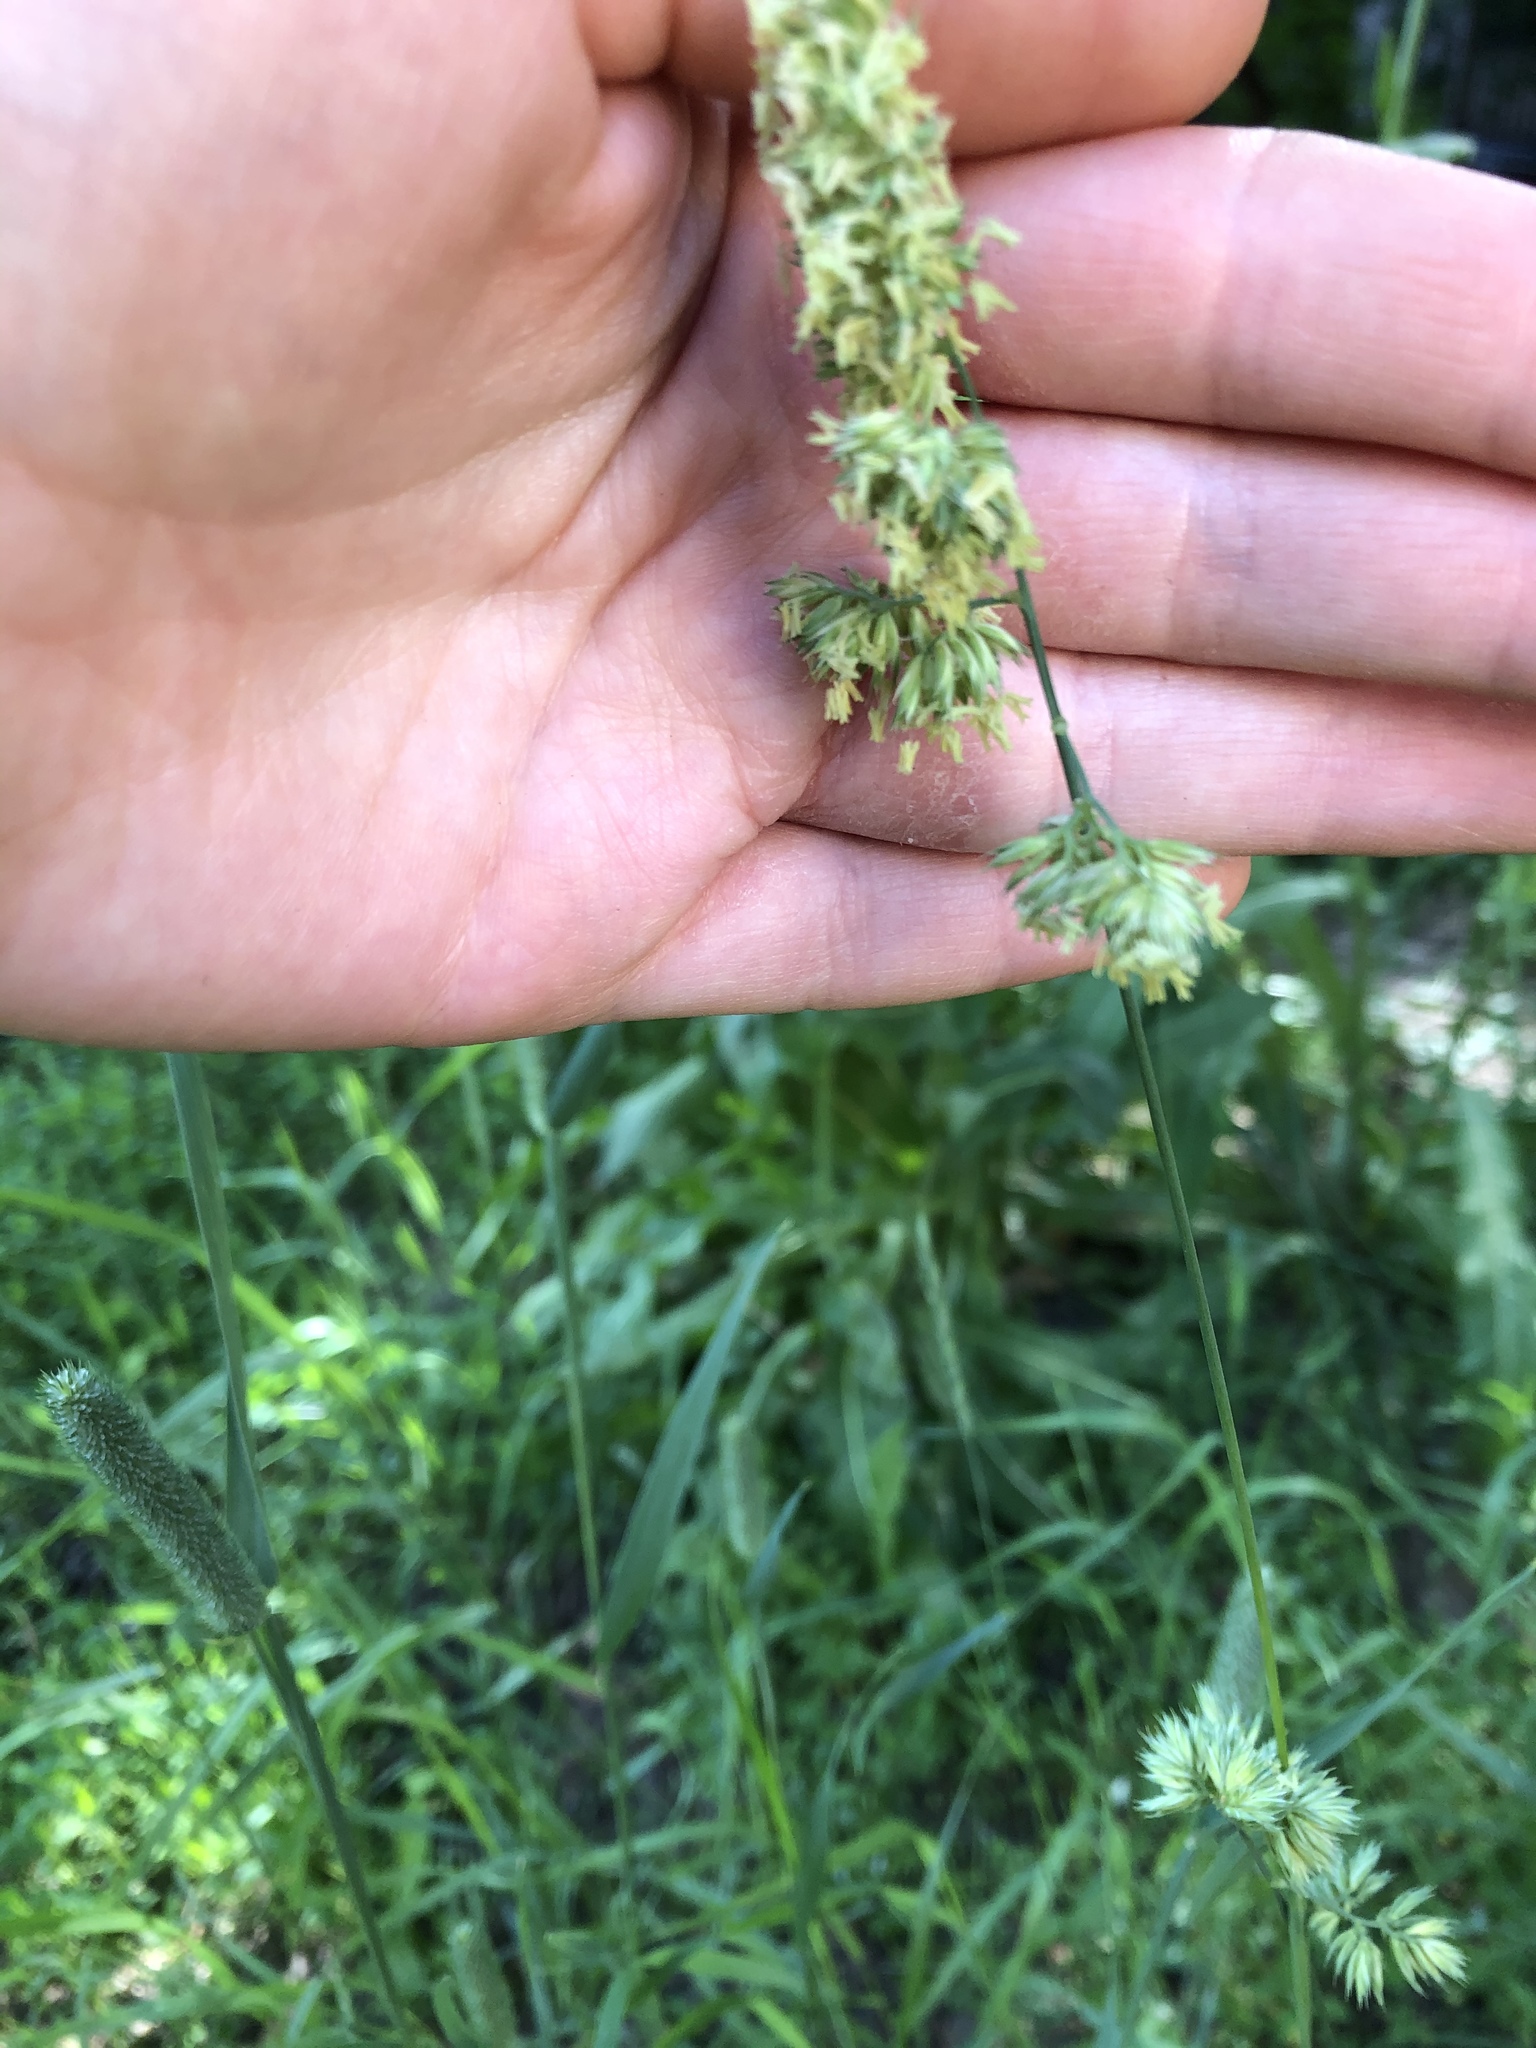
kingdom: Plantae
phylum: Tracheophyta
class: Liliopsida
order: Poales
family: Poaceae
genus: Dactylis
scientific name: Dactylis glomerata
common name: Orchardgrass
